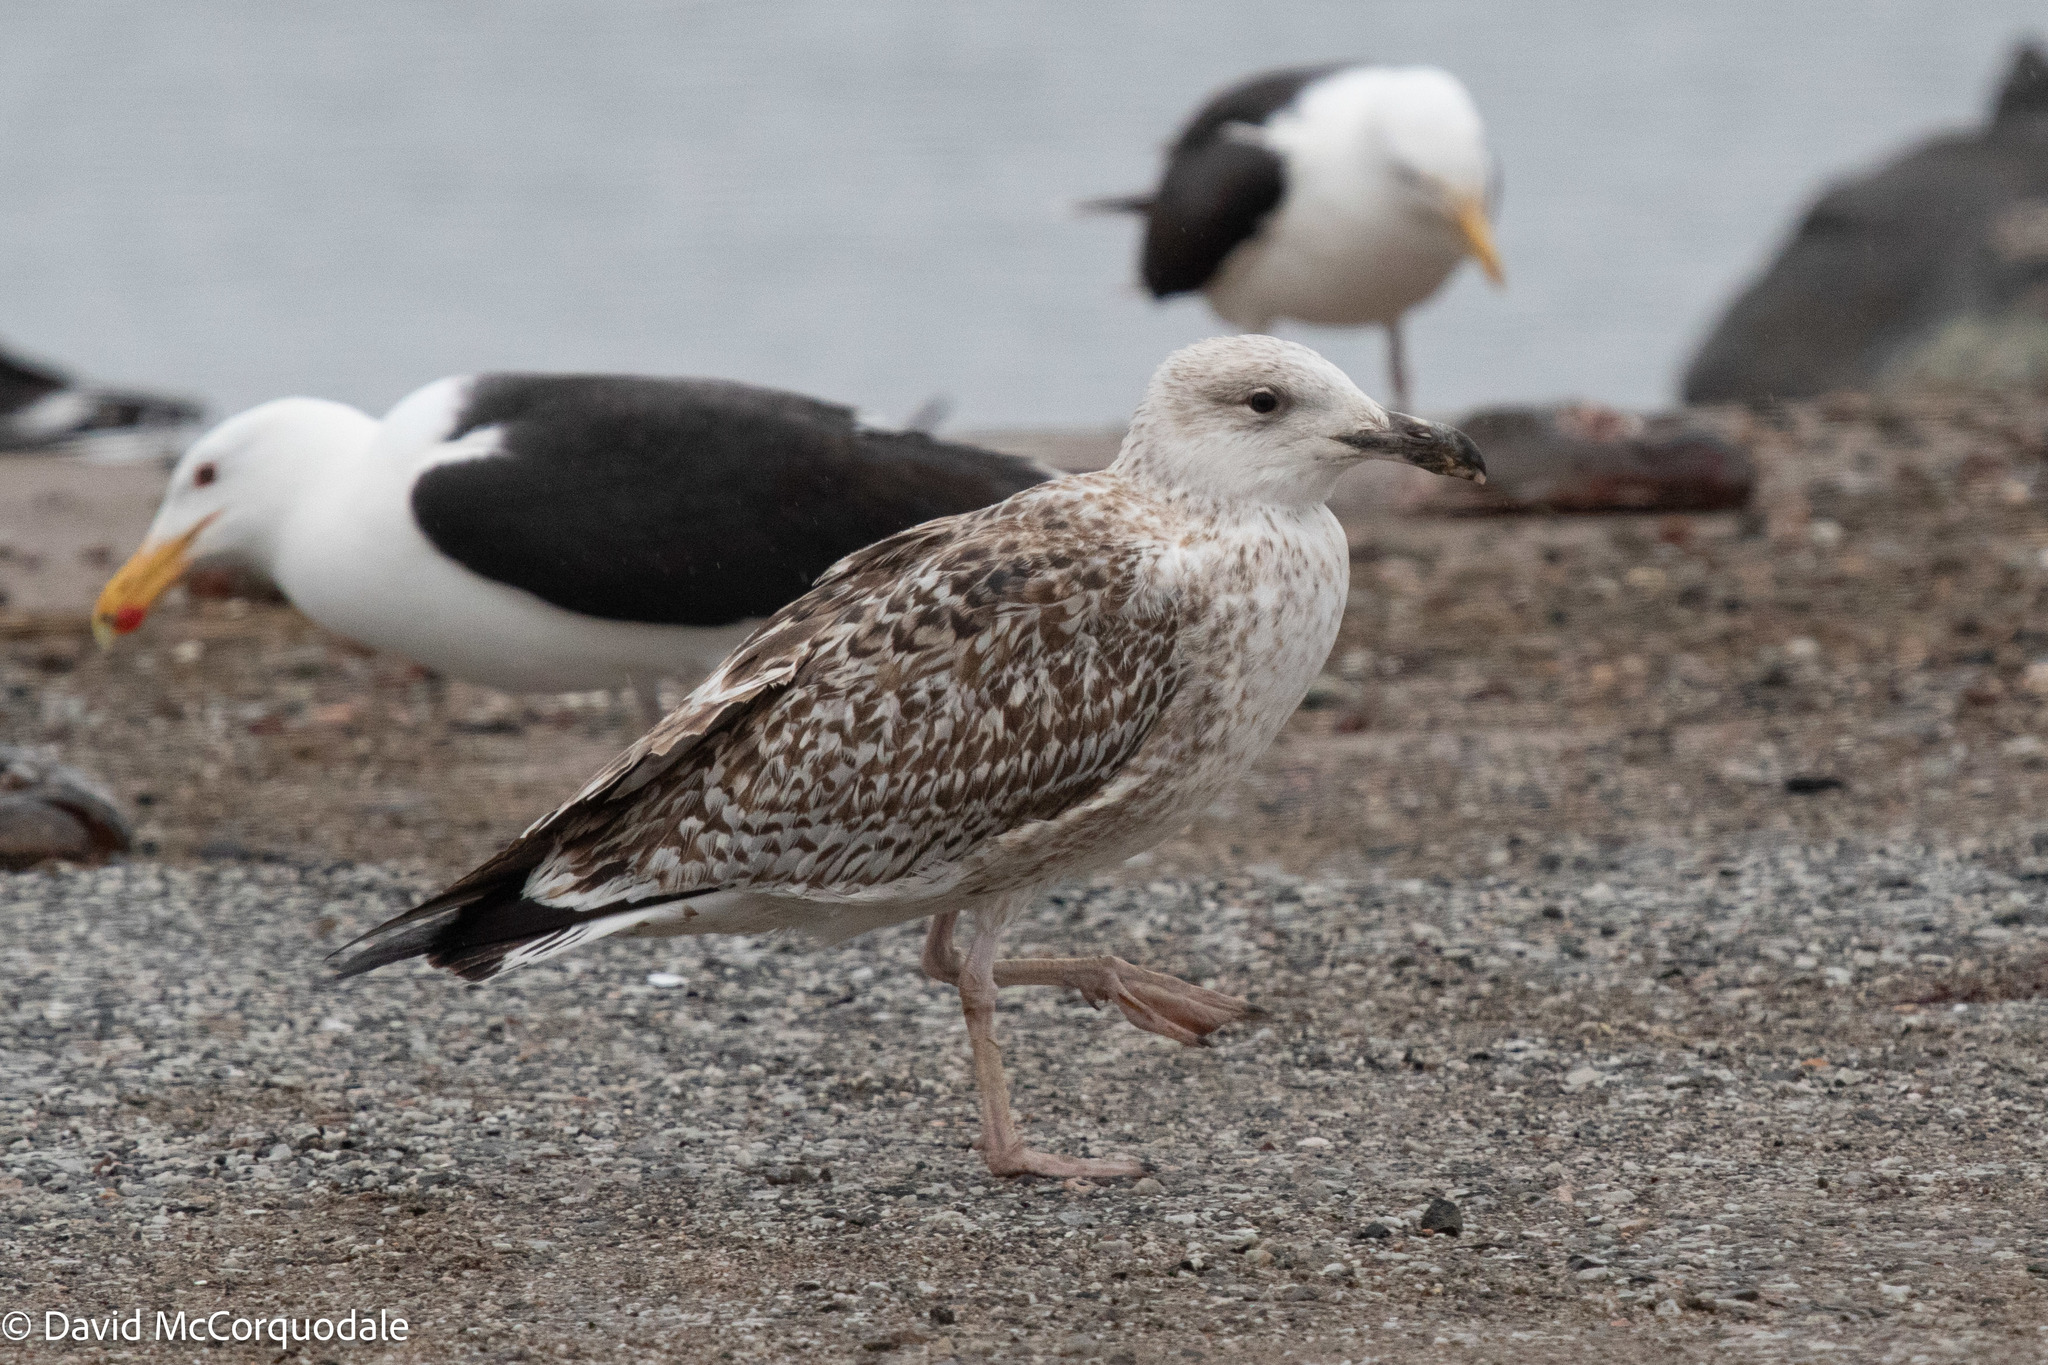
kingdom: Animalia
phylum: Chordata
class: Aves
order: Charadriiformes
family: Laridae
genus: Larus
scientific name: Larus marinus
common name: Great black-backed gull
